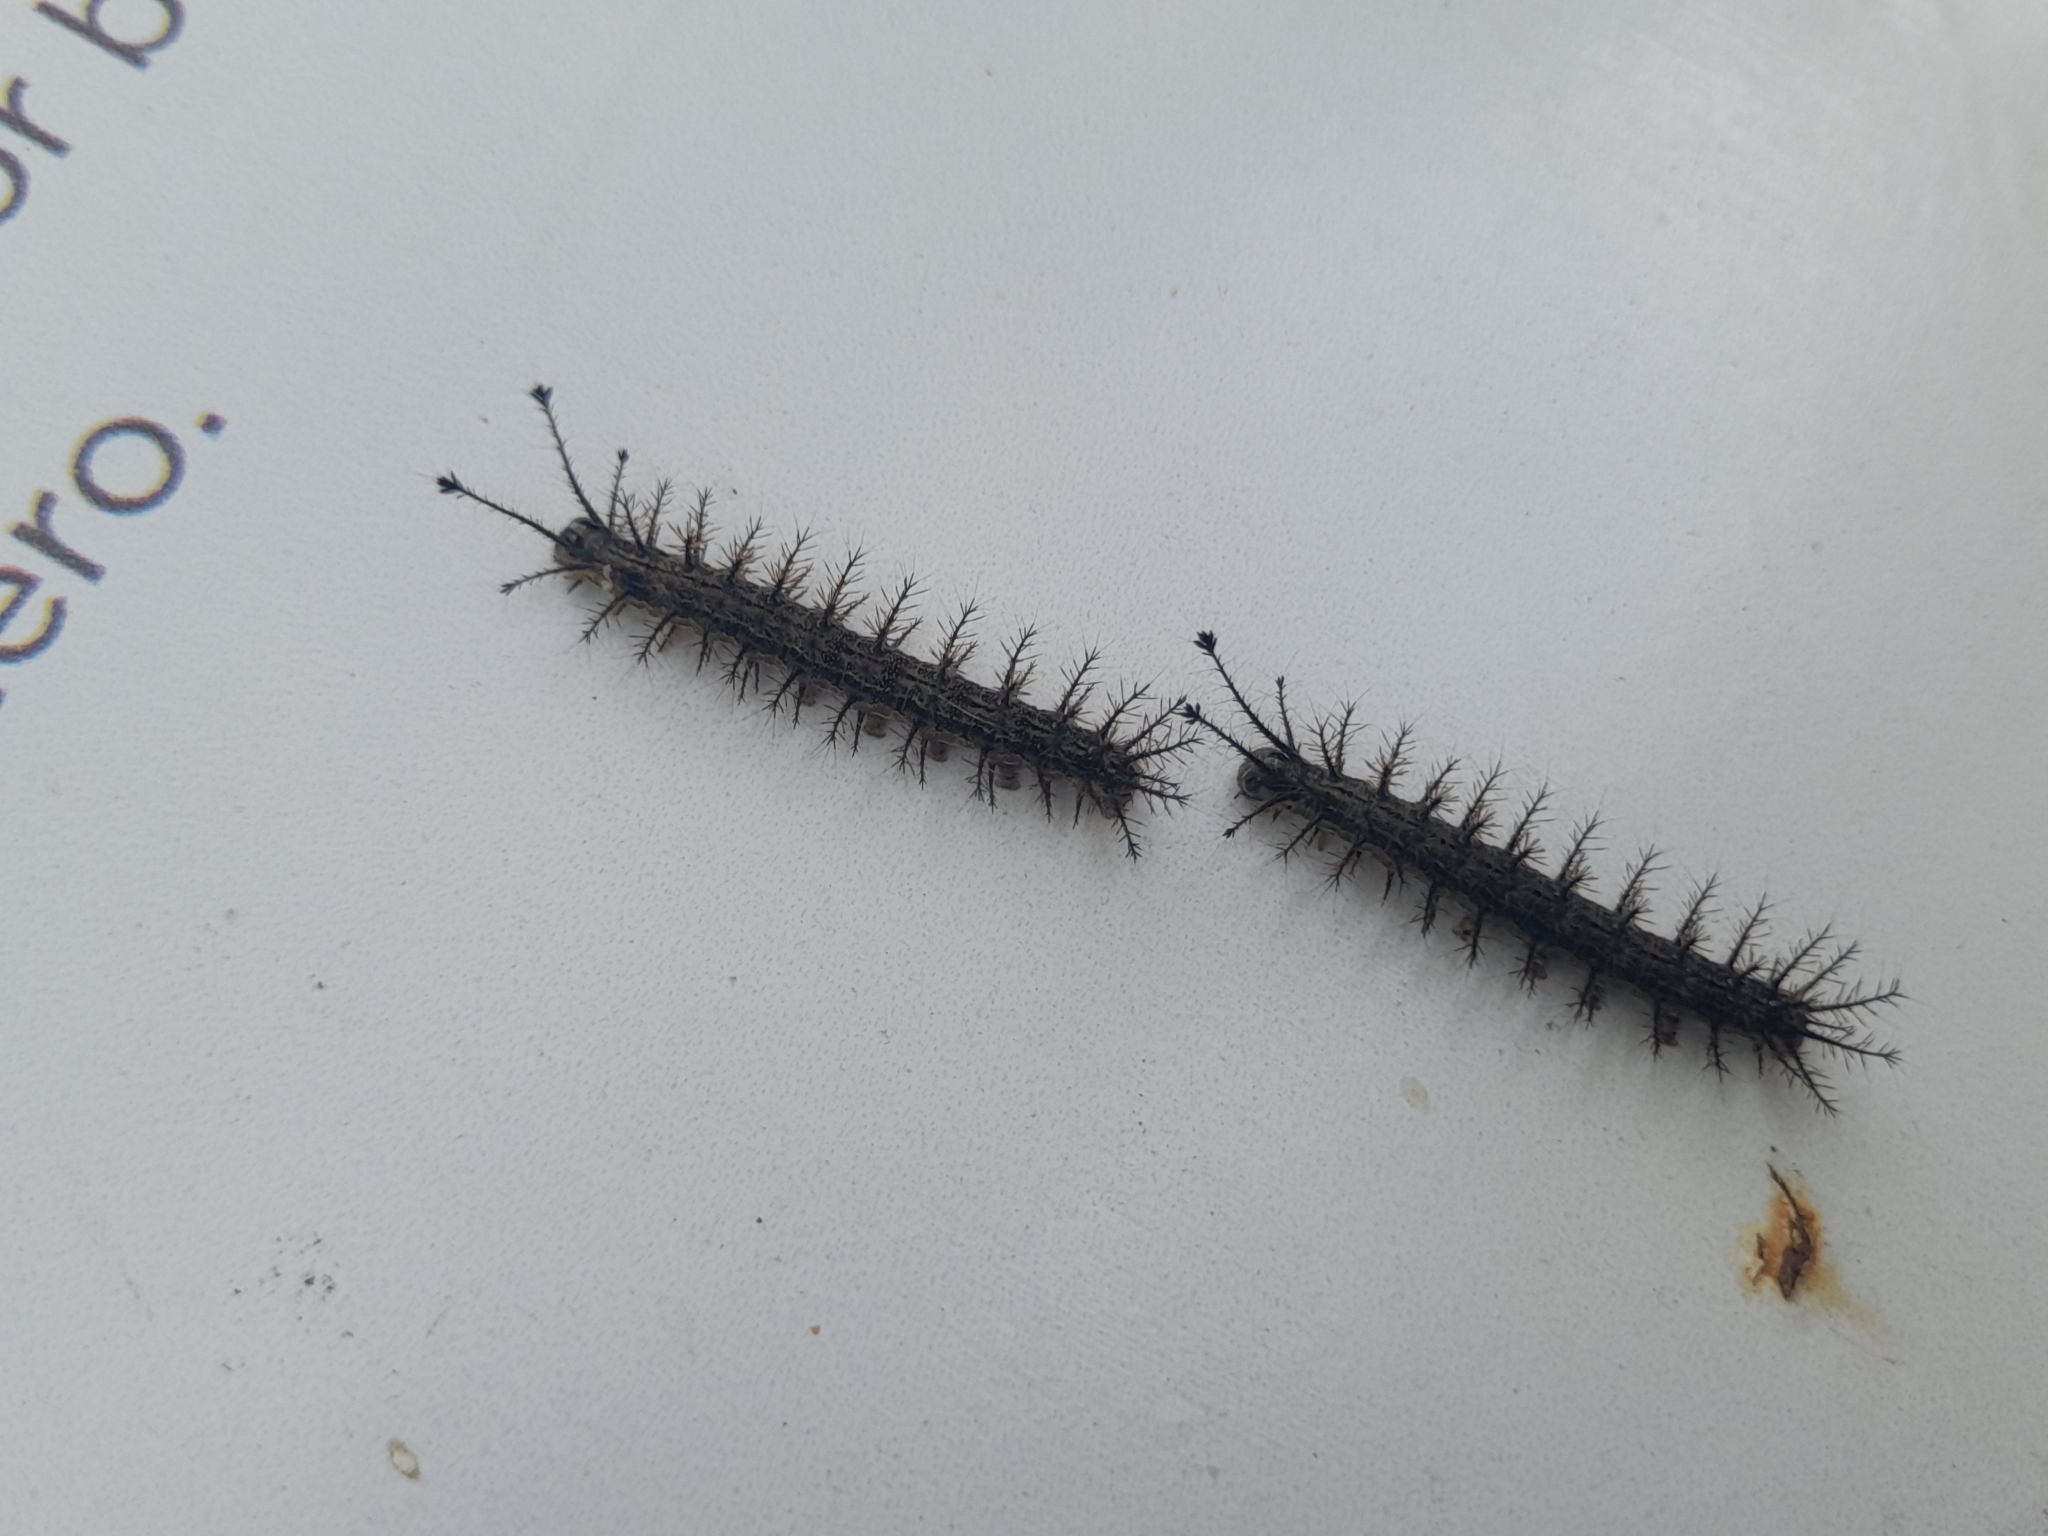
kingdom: Animalia
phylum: Arthropoda
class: Insecta
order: Lepidoptera
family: Saturniidae
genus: Hylesia
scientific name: Hylesia nigricans
